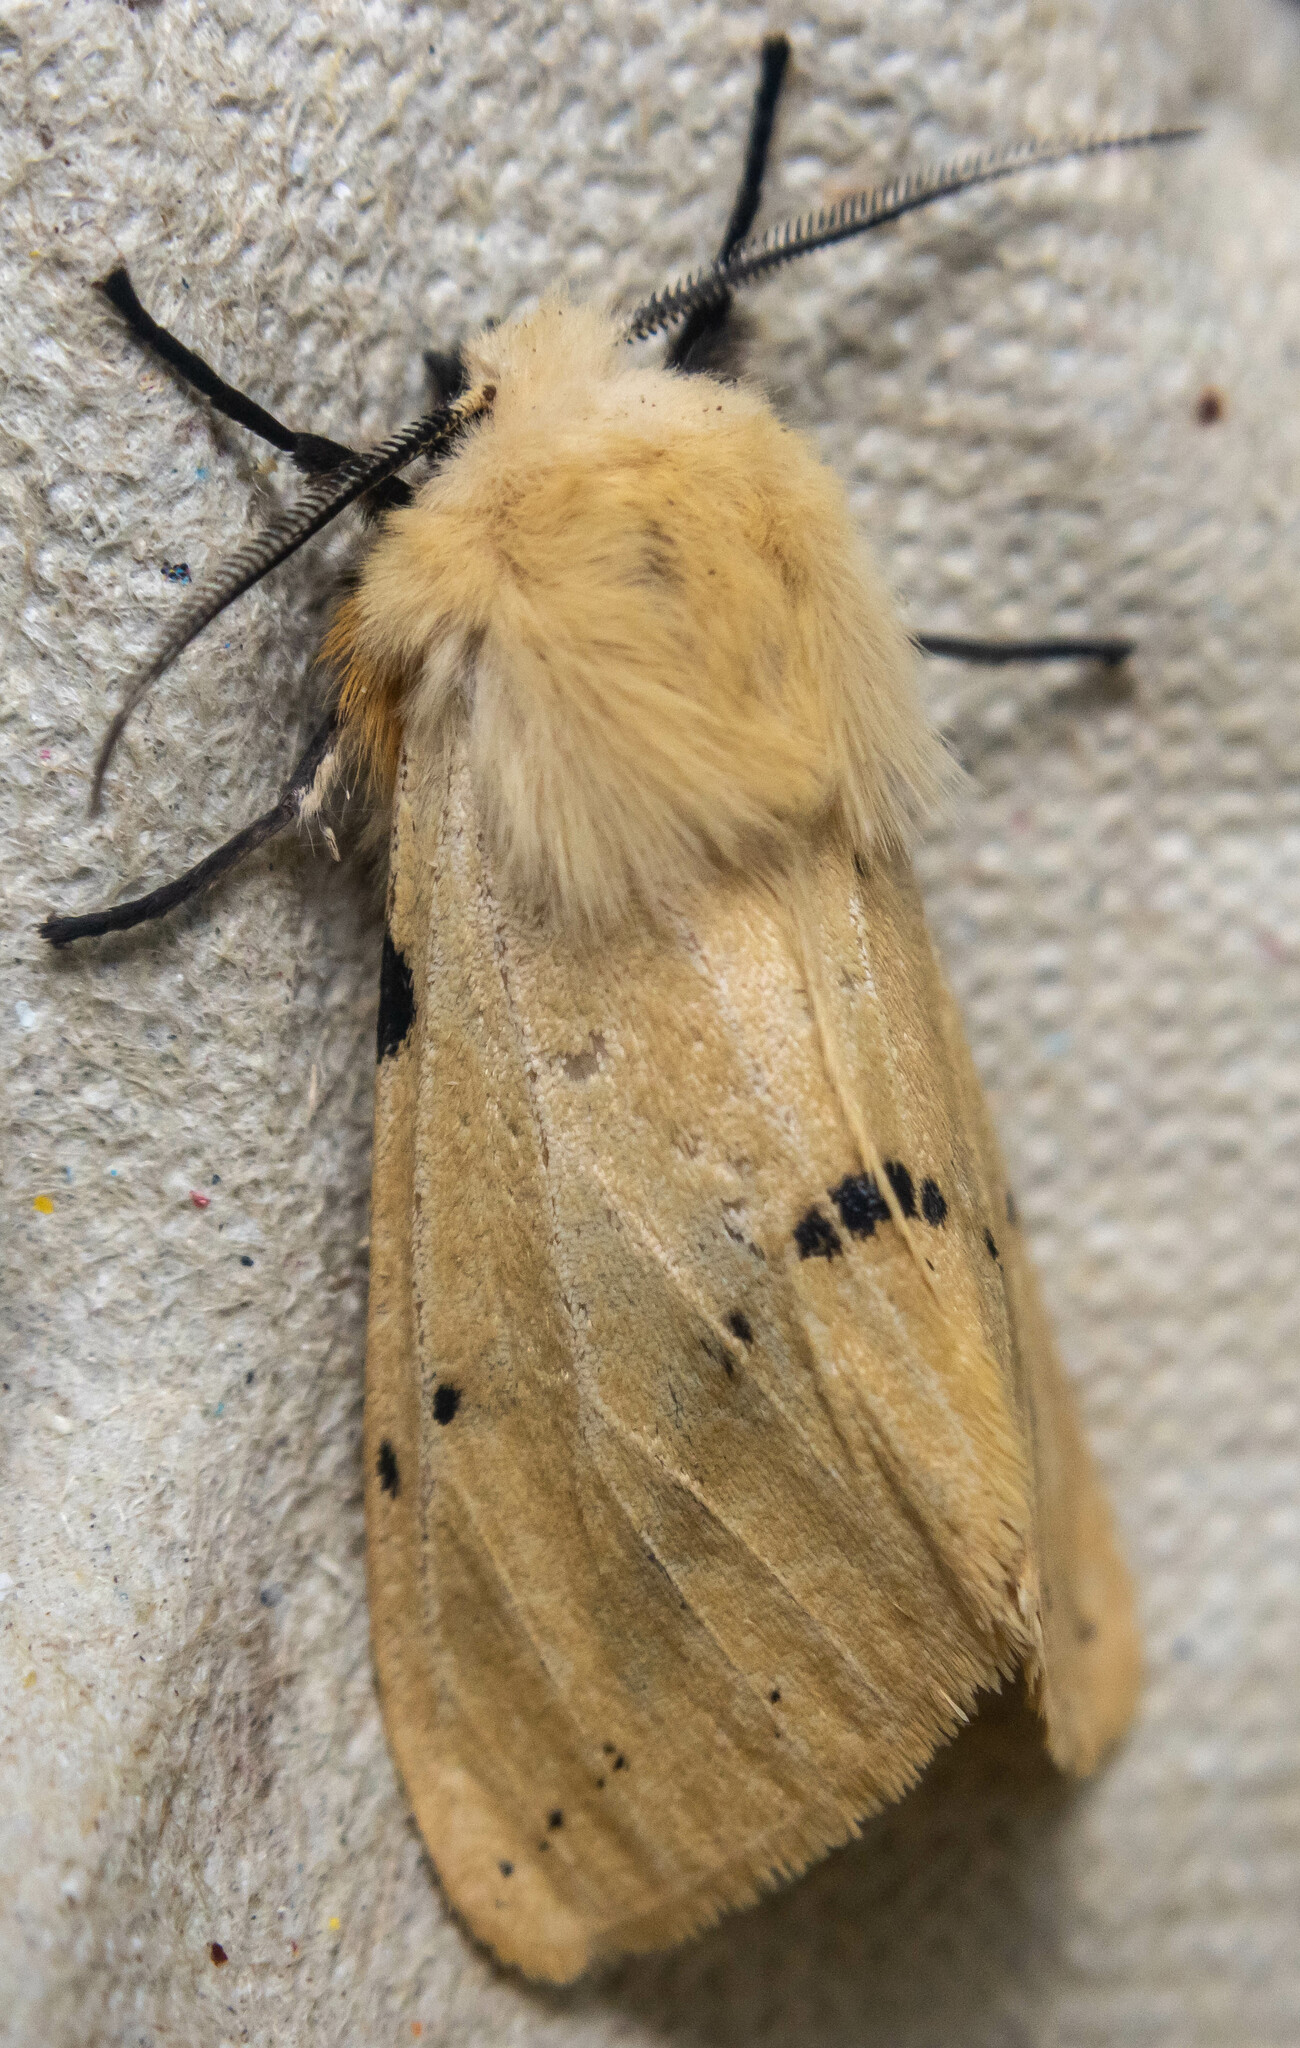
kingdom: Animalia
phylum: Arthropoda
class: Insecta
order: Lepidoptera
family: Erebidae
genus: Spilarctia
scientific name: Spilarctia lutea
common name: Buff ermine
